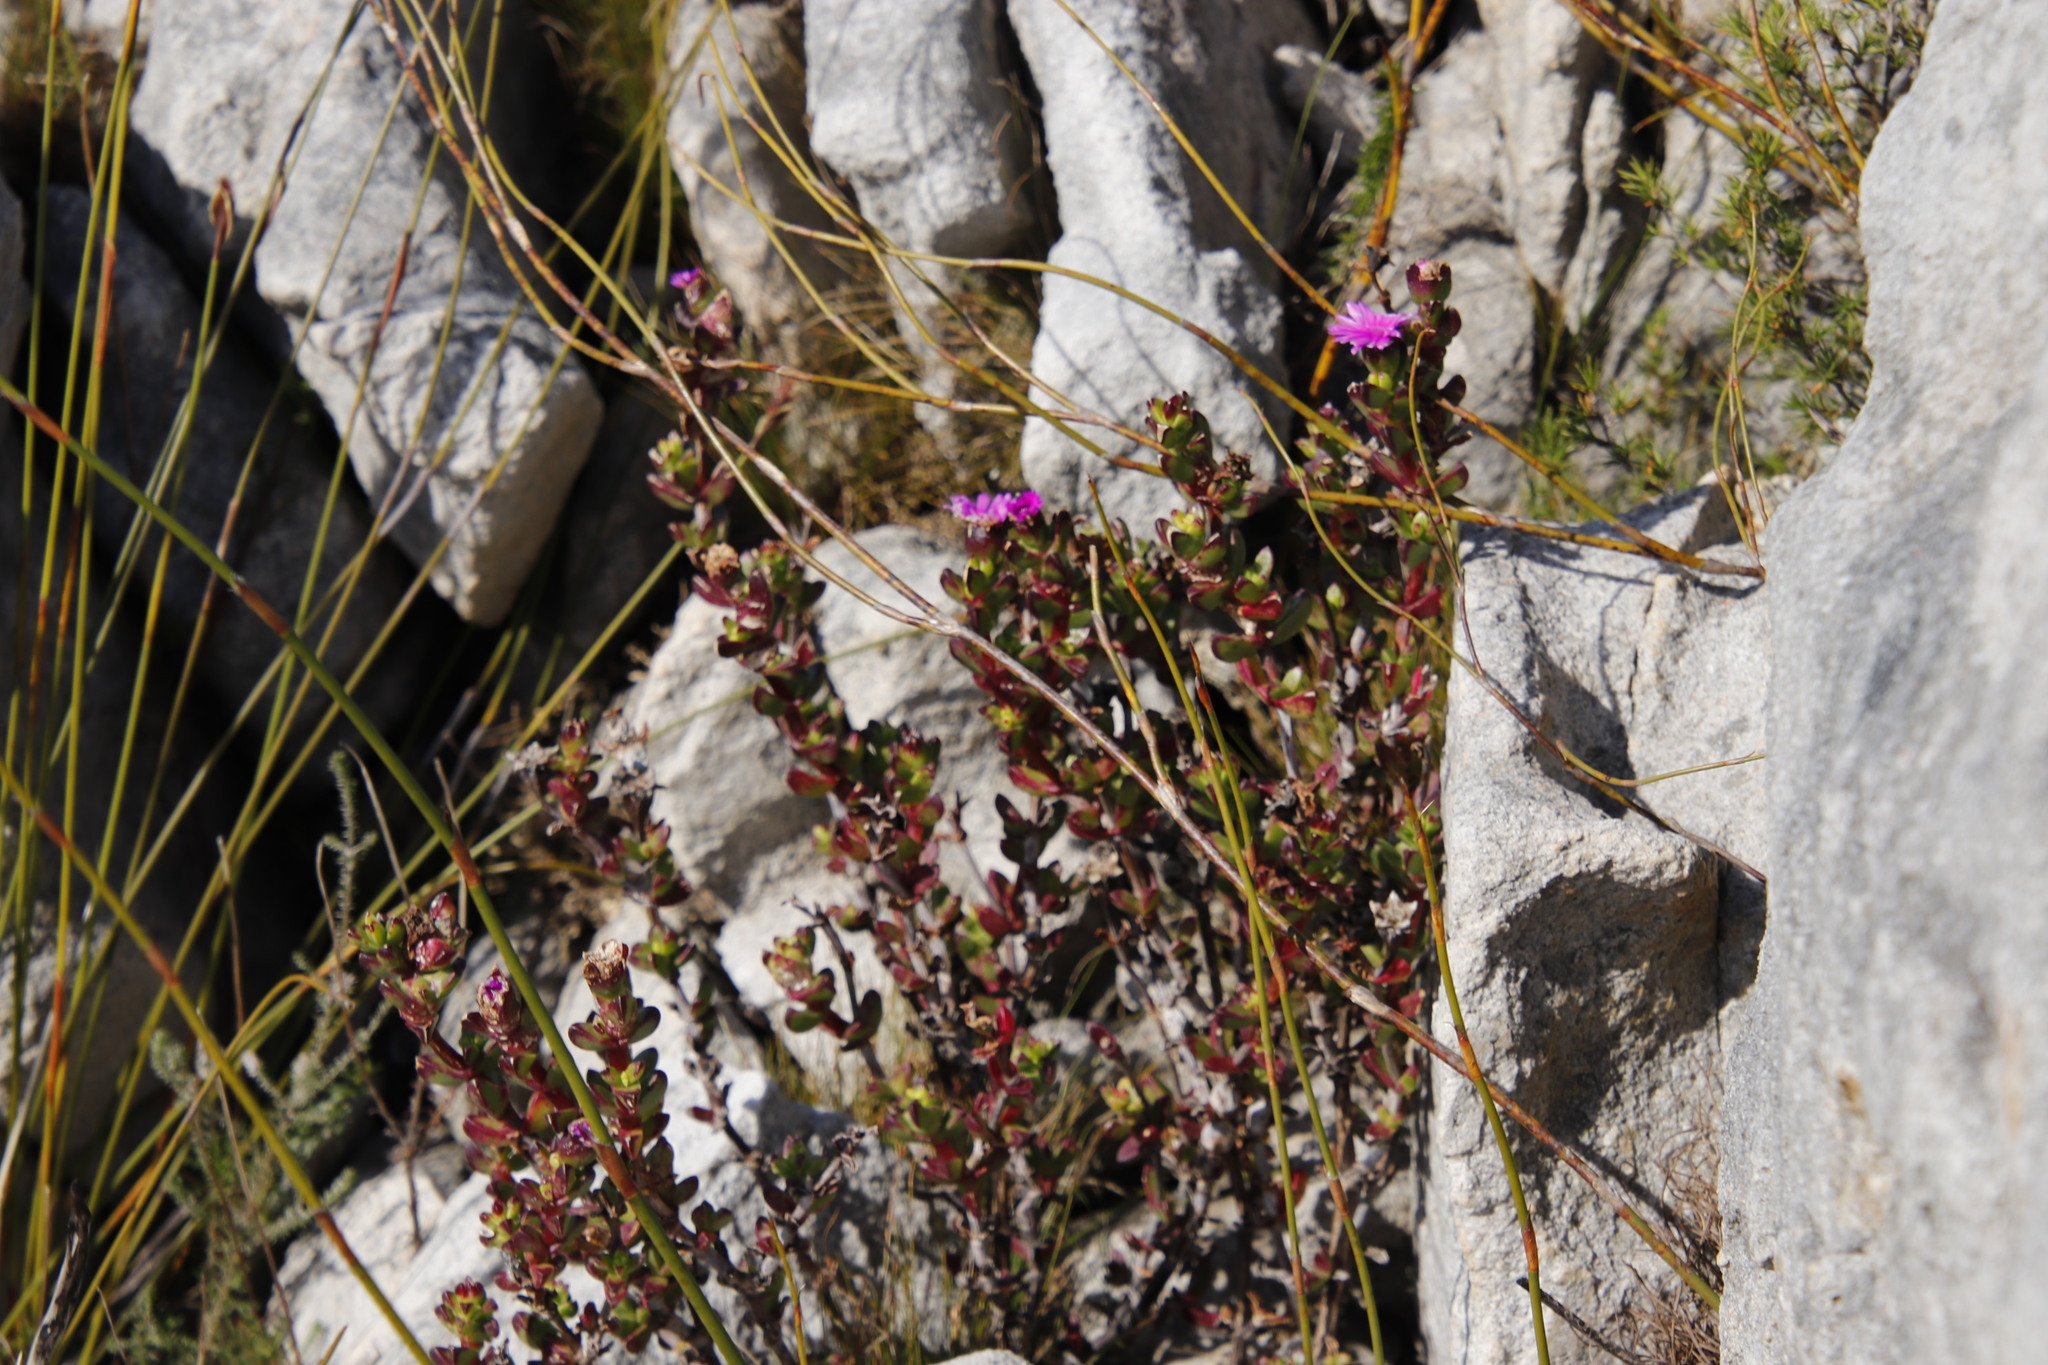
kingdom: Plantae
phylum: Tracheophyta
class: Magnoliopsida
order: Caryophyllales
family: Aizoaceae
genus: Erepsia
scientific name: Erepsia inclaudens
